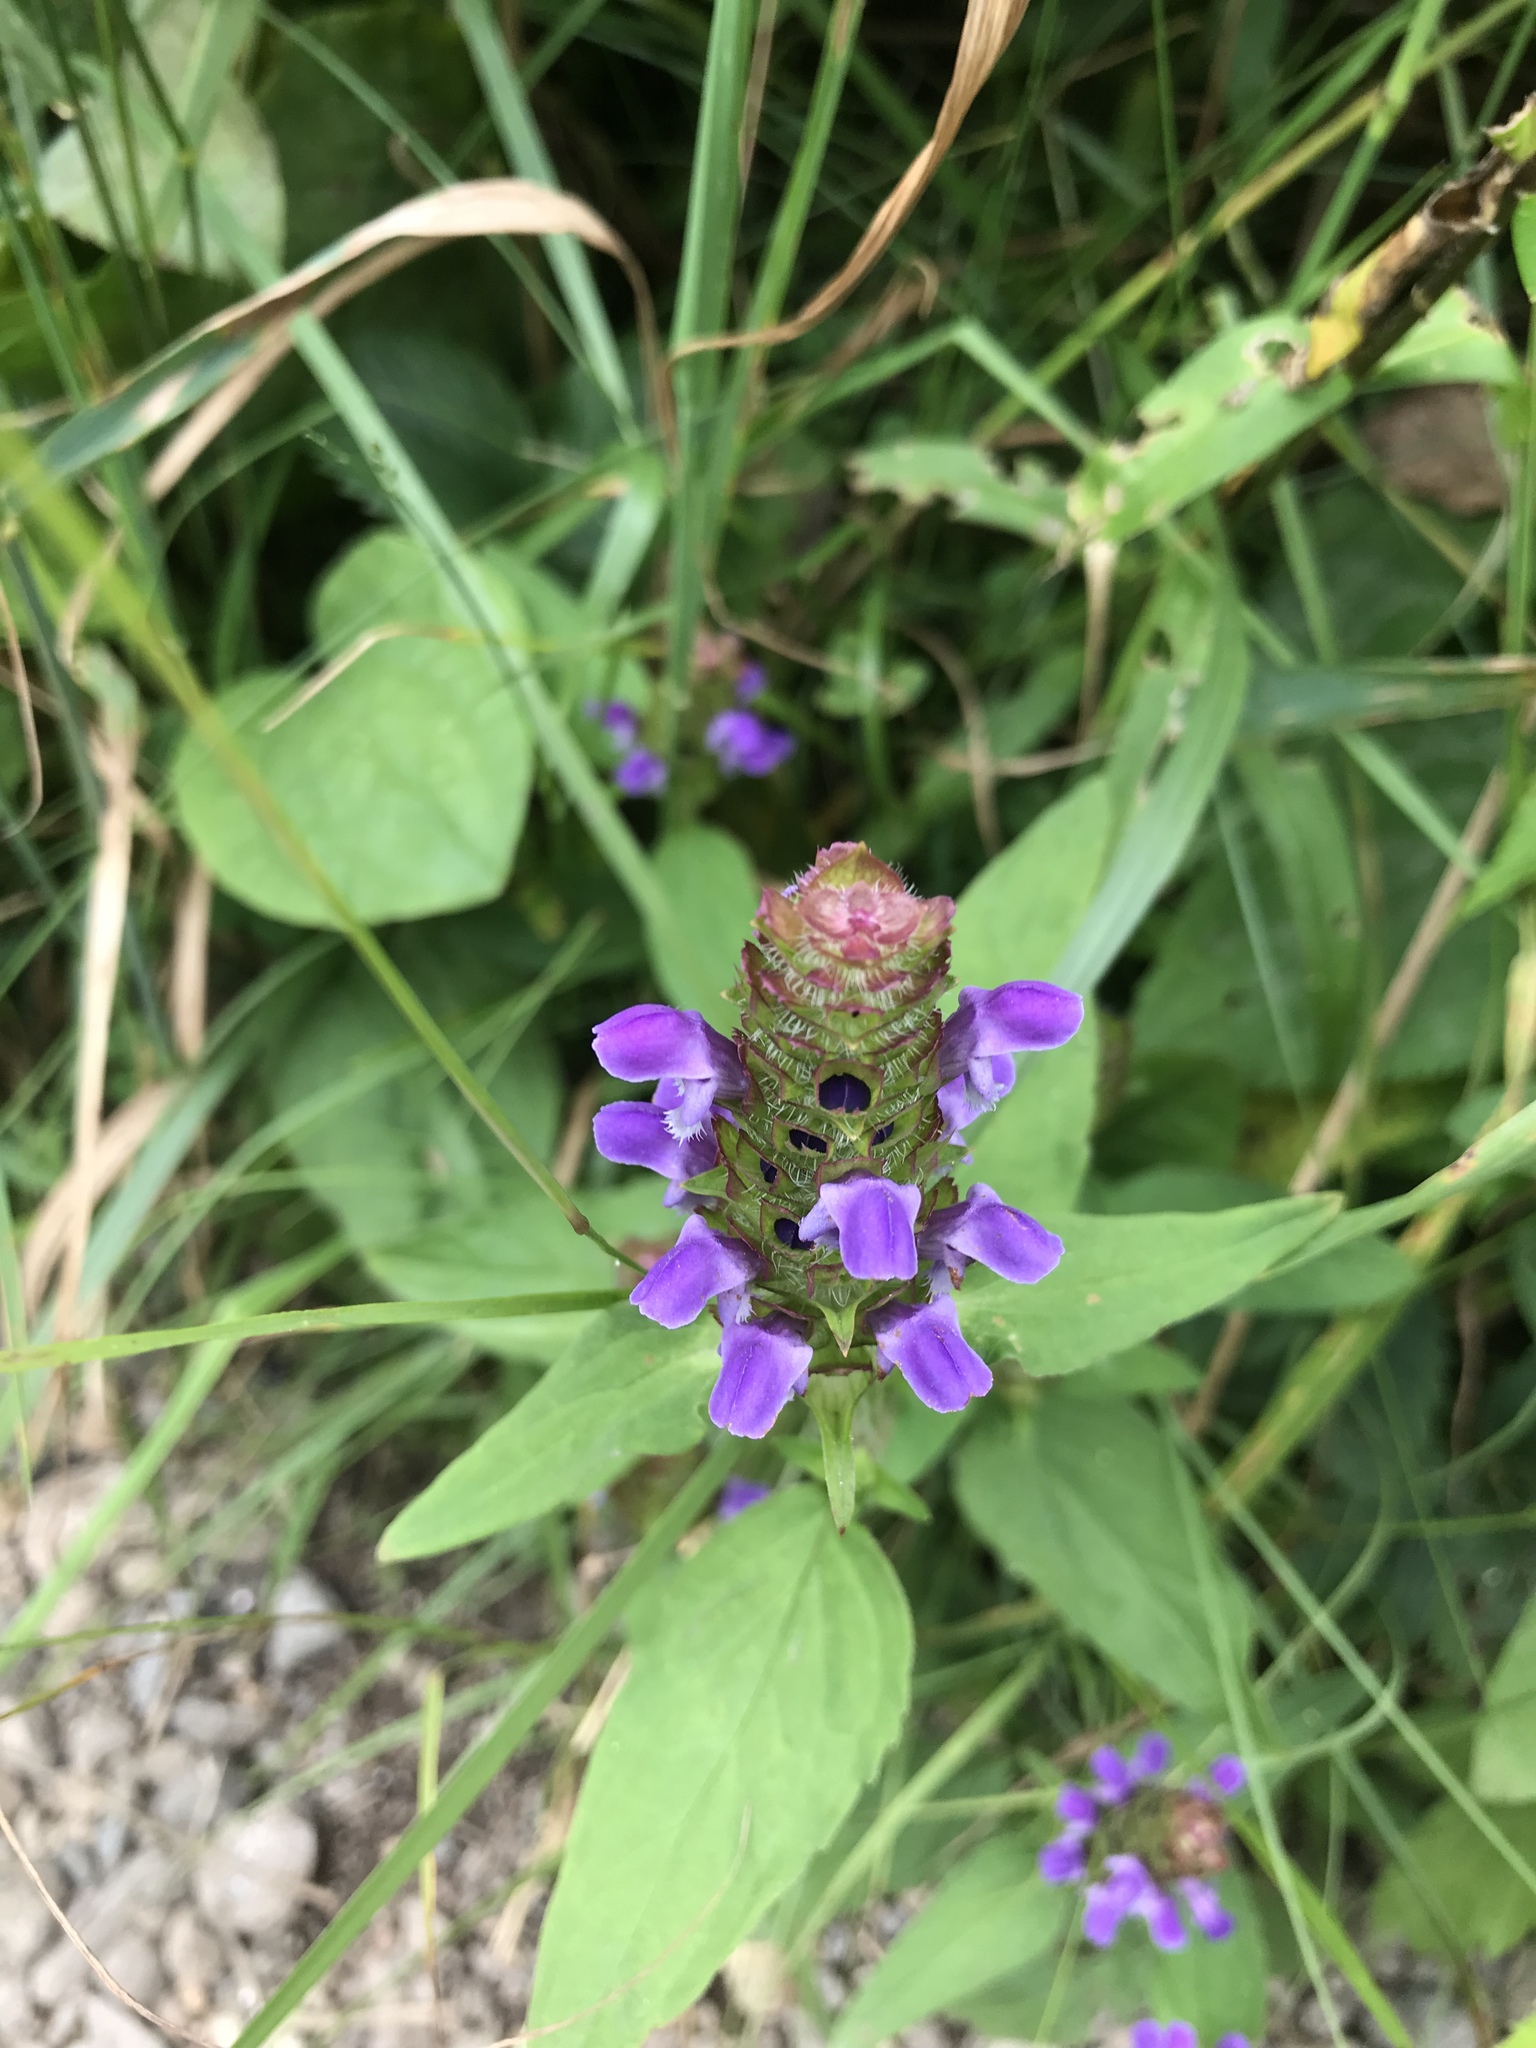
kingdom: Plantae
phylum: Tracheophyta
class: Magnoliopsida
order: Lamiales
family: Lamiaceae
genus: Prunella
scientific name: Prunella vulgaris
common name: Heal-all
